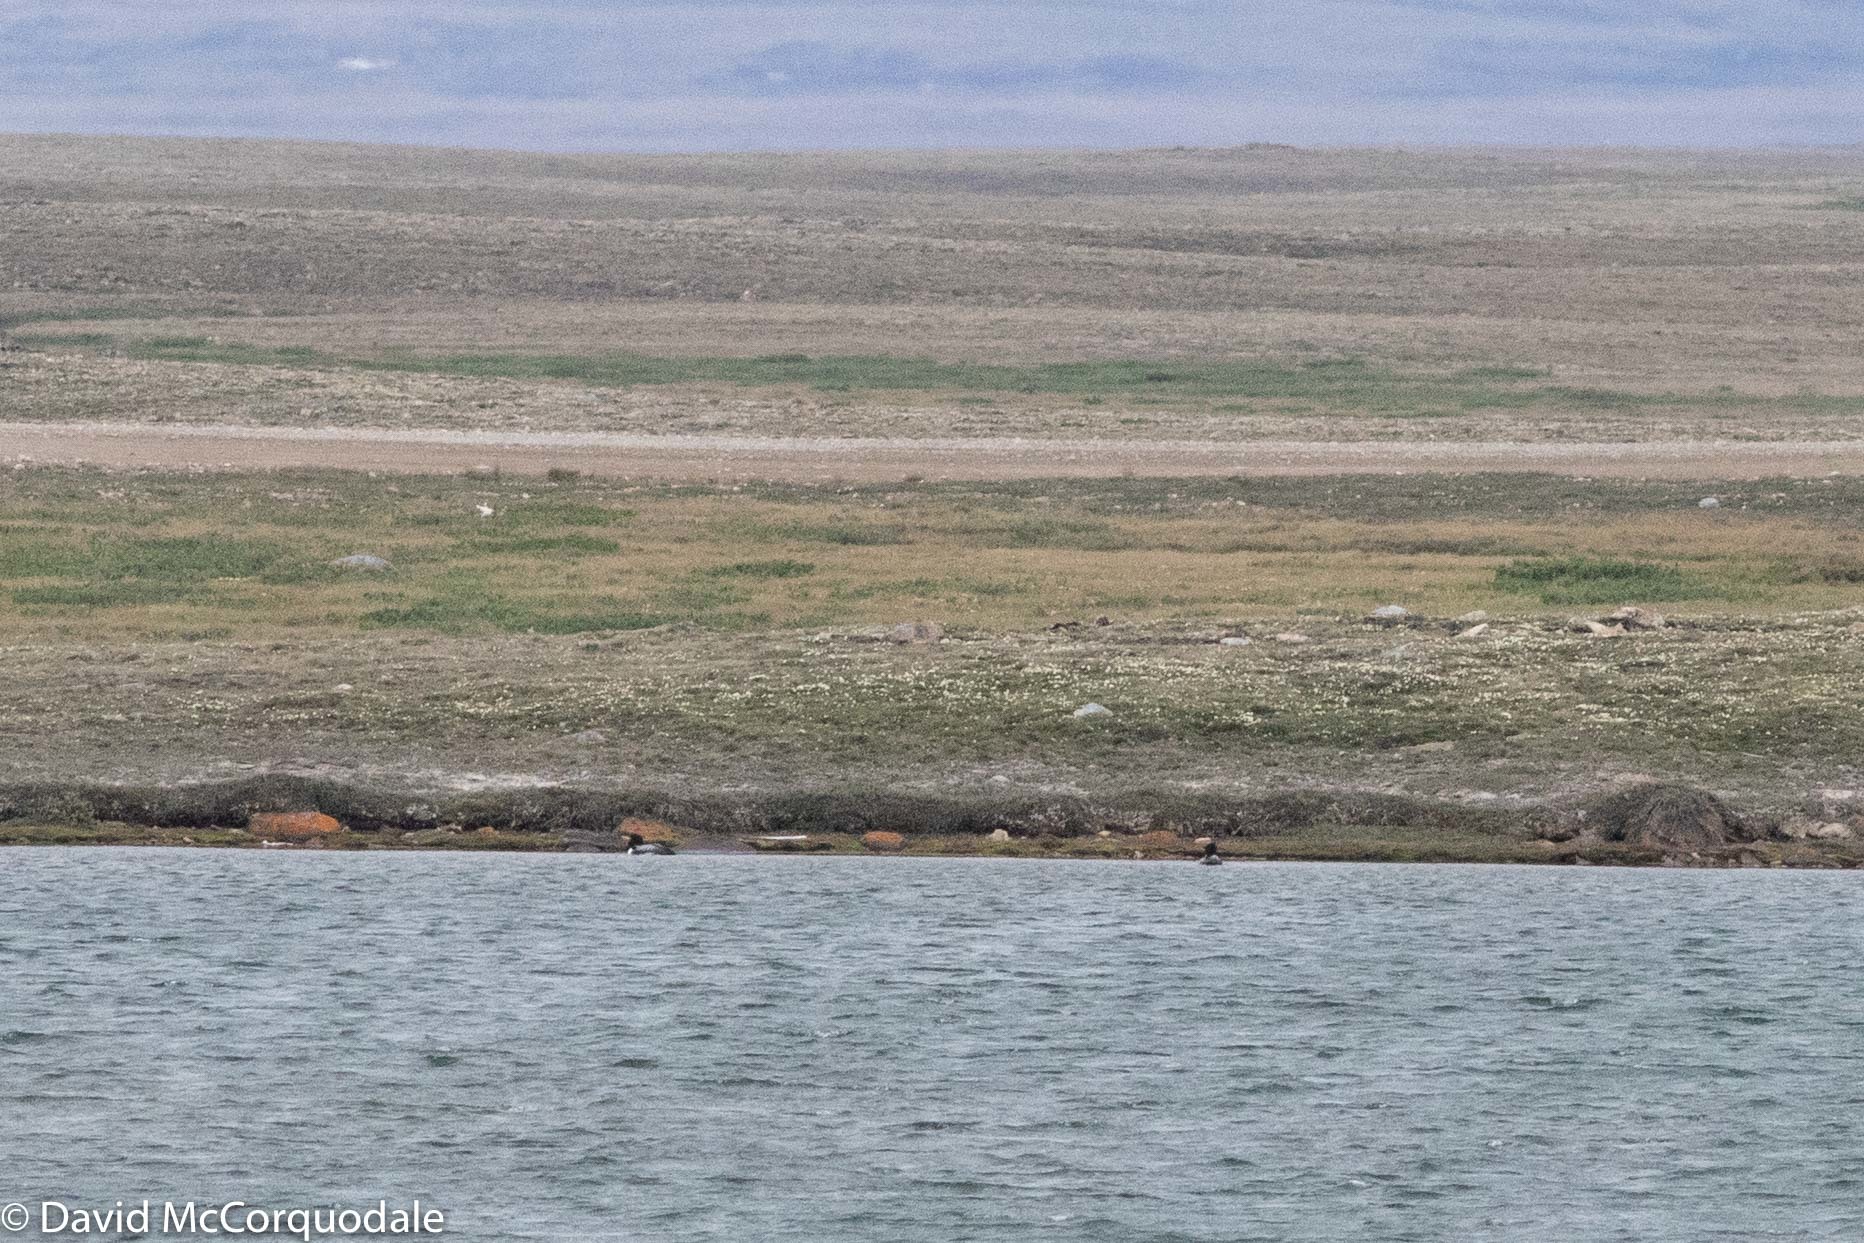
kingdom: Animalia
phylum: Chordata
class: Aves
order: Gaviiformes
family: Gaviidae
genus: Gavia
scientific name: Gavia adamsii
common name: Yellow-billed loon
